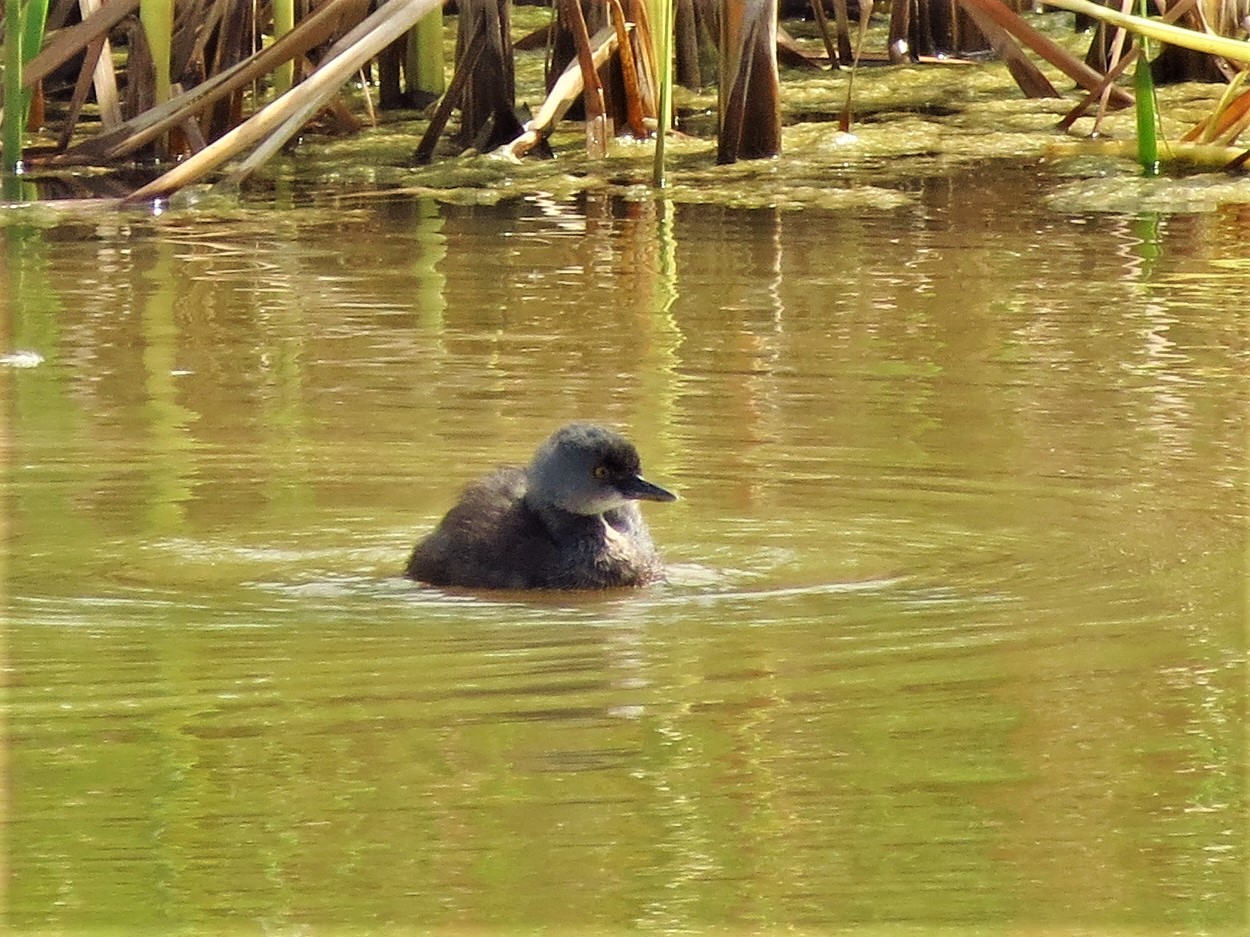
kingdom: Animalia
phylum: Chordata
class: Aves
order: Podicipediformes
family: Podicipedidae
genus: Tachybaptus
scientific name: Tachybaptus dominicus
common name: Least grebe
